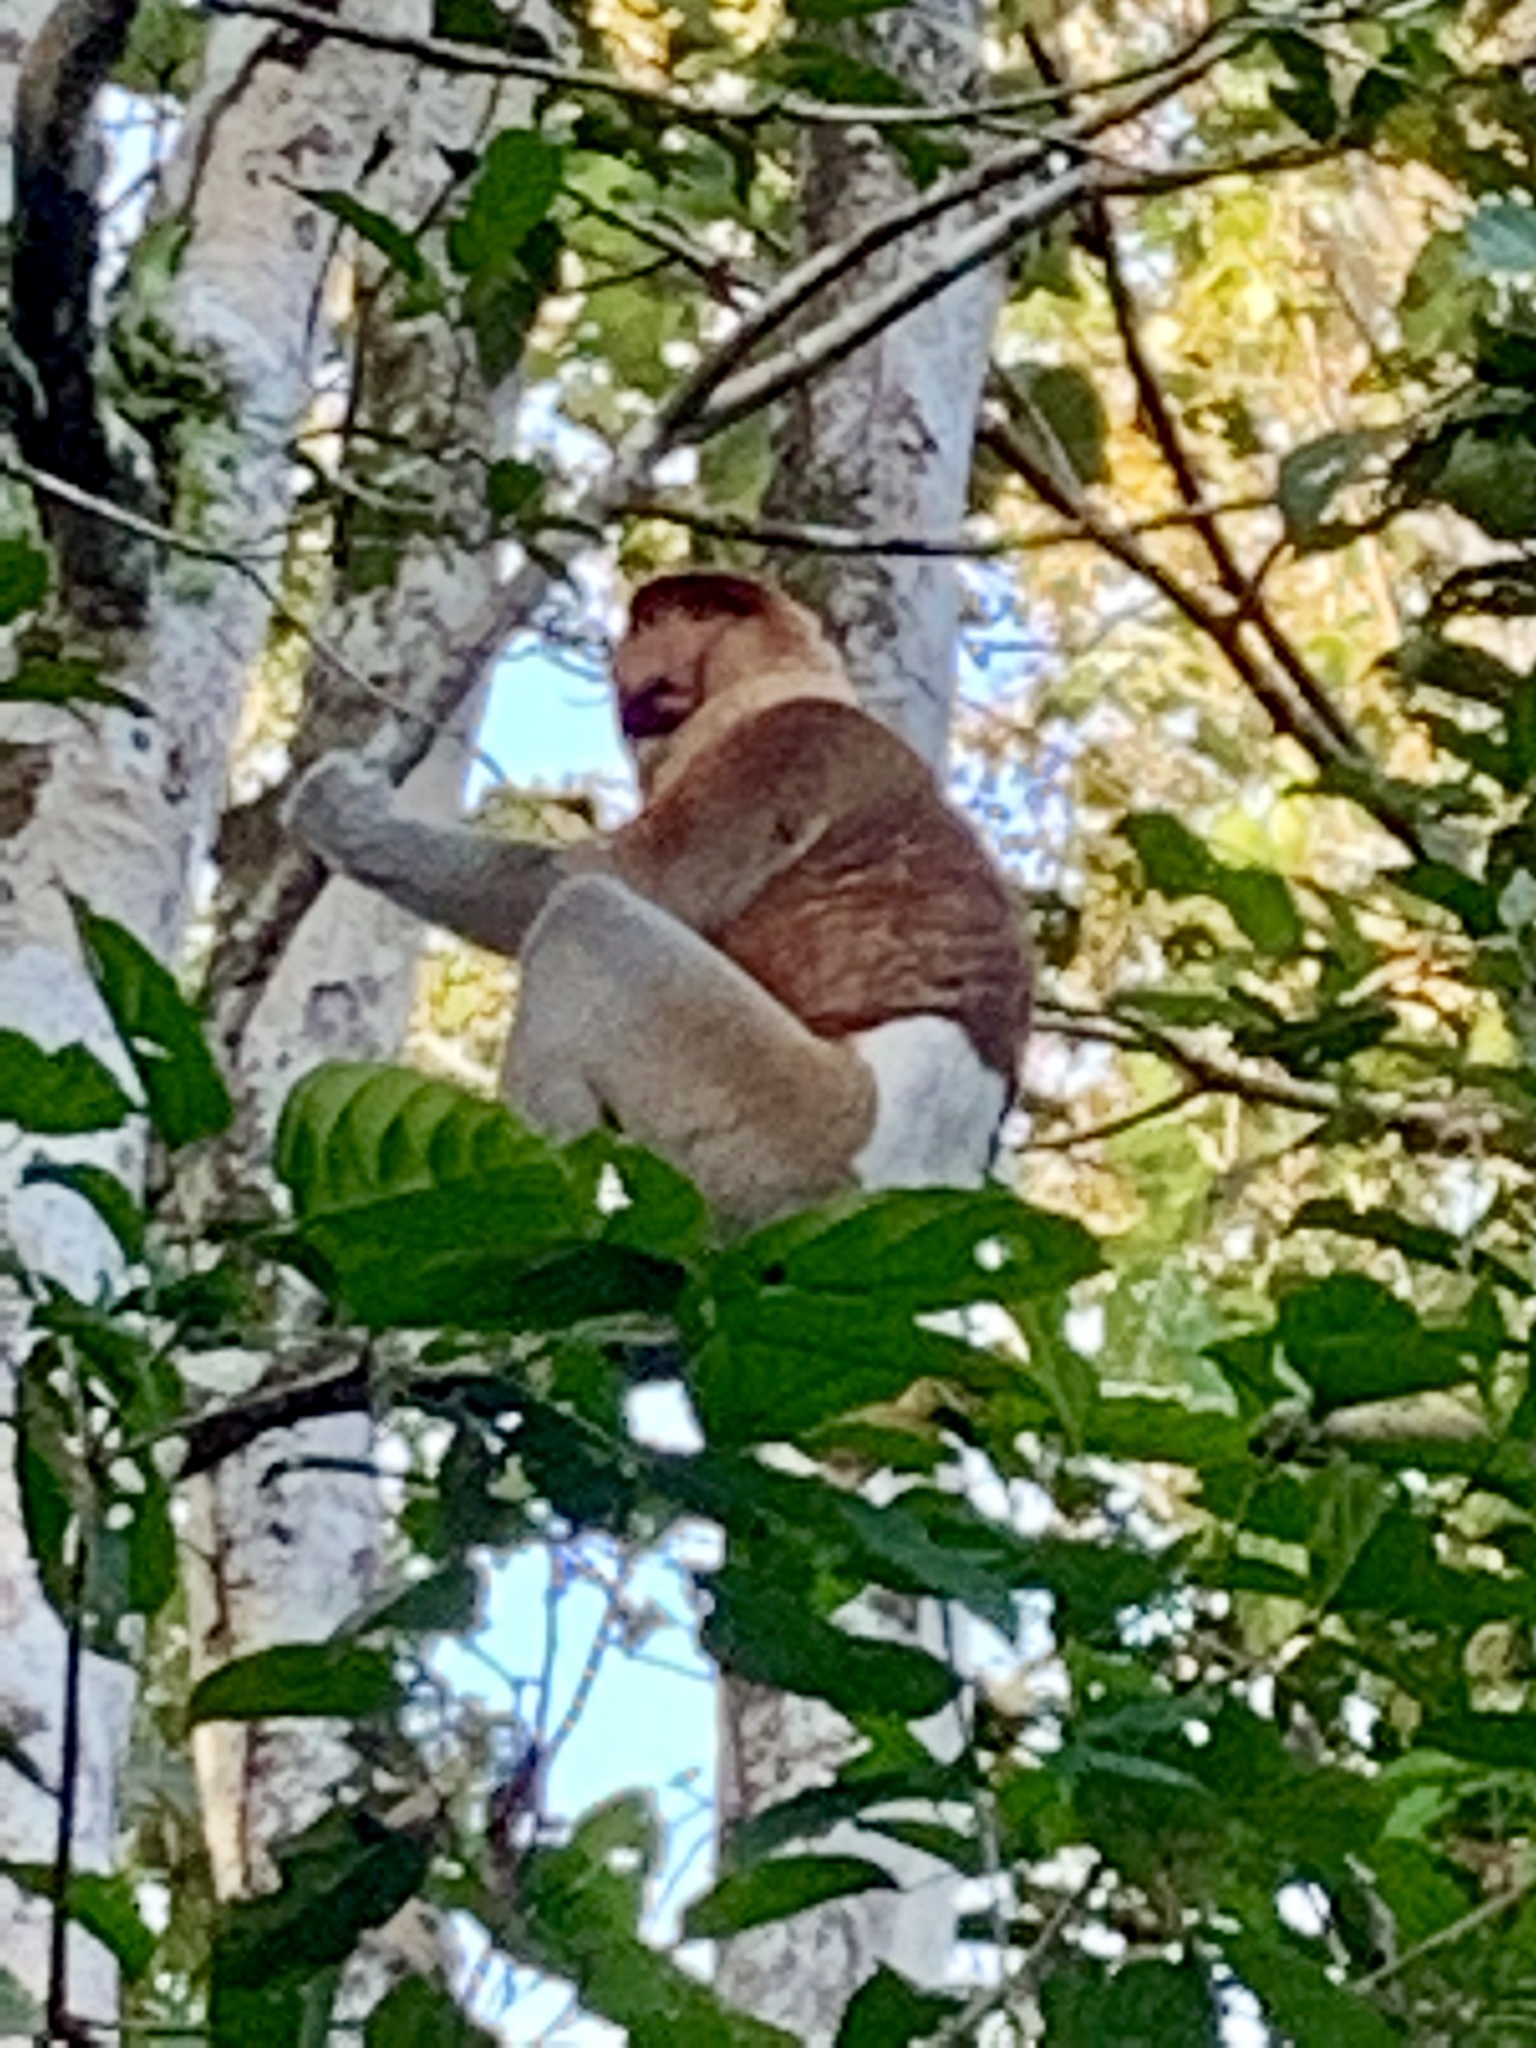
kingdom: Animalia
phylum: Chordata
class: Mammalia
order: Primates
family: Cercopithecidae
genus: Nasalis
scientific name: Nasalis larvatus
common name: Proboscis monkey
